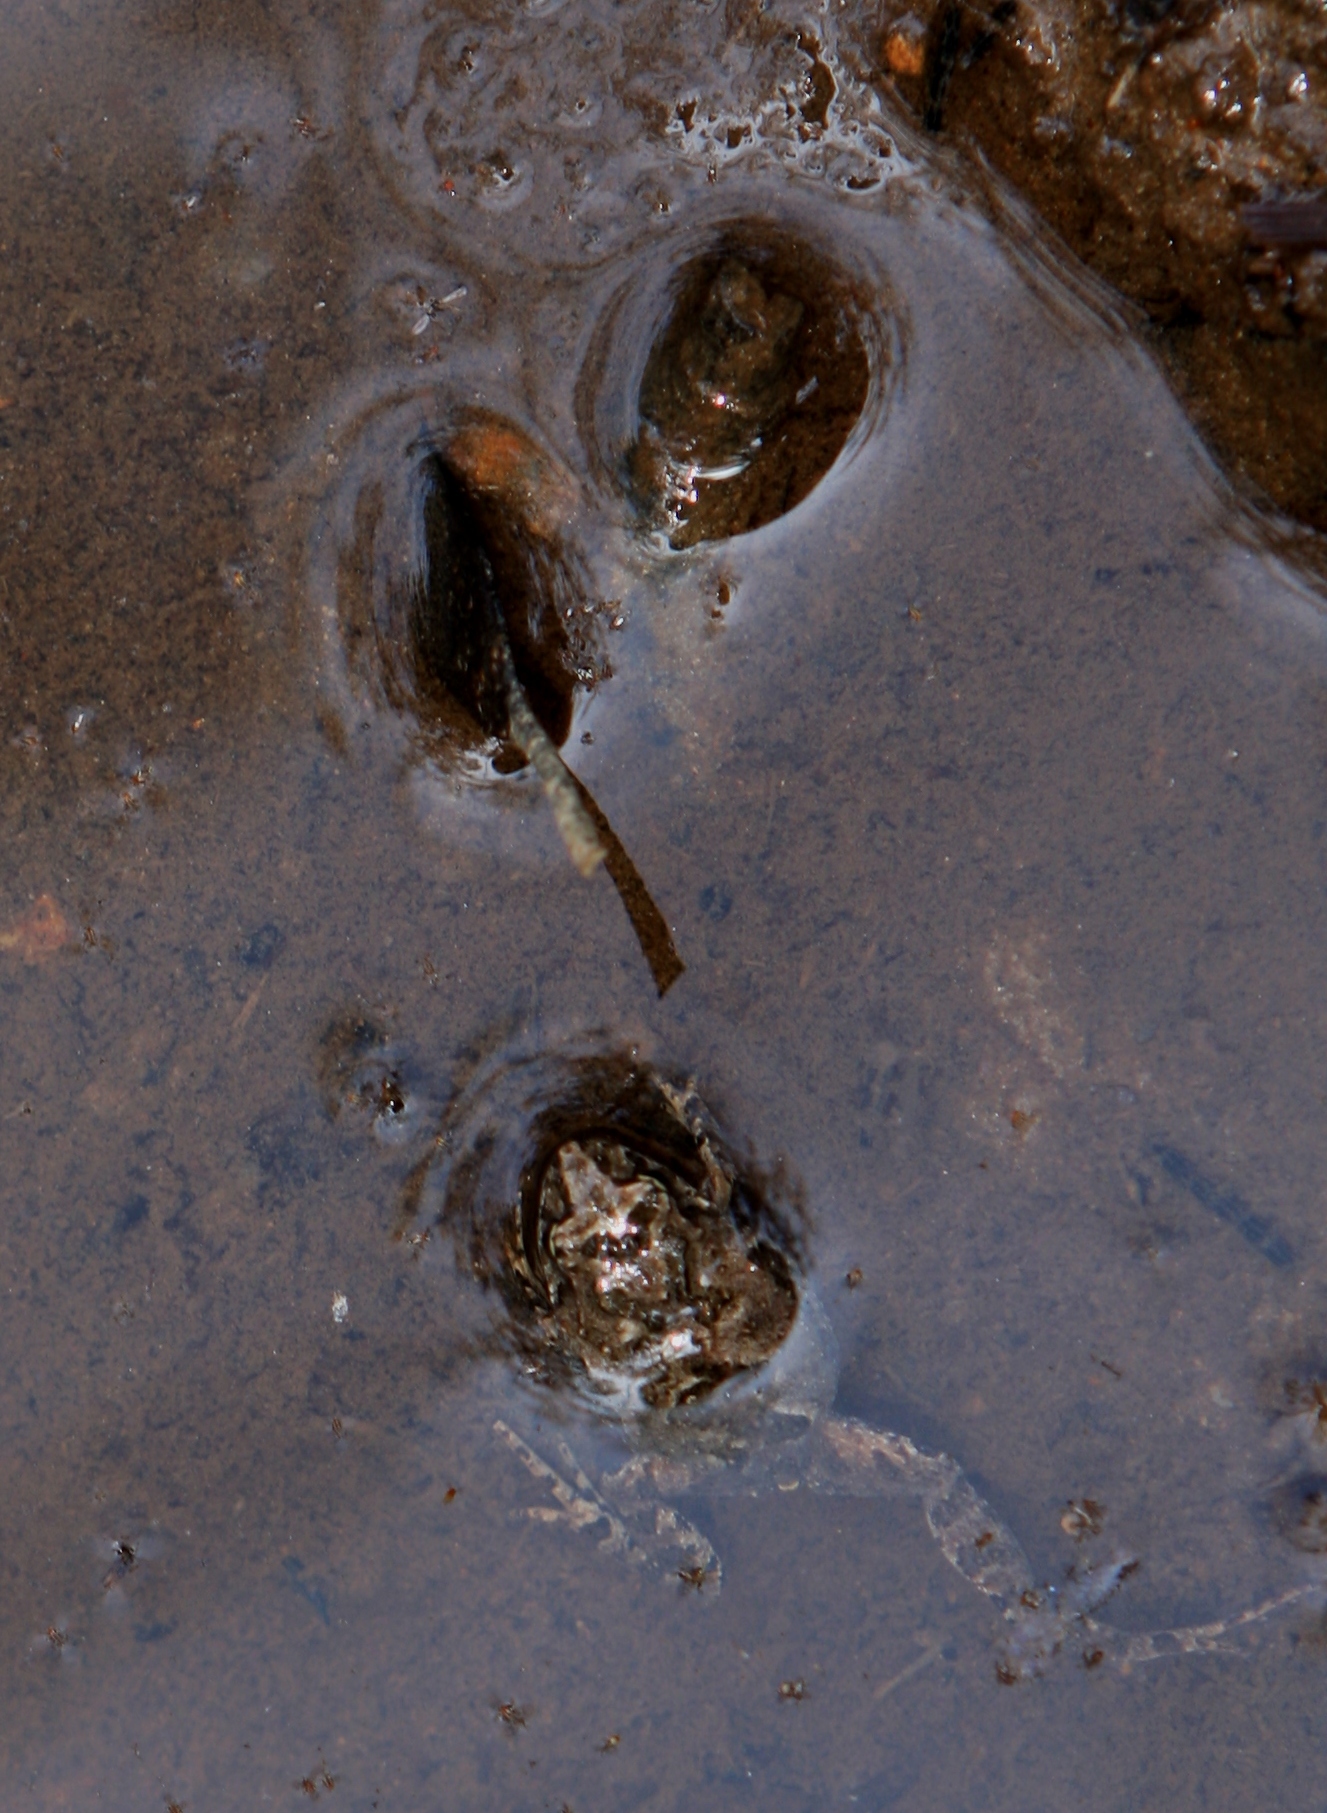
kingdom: Animalia
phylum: Chordata
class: Amphibia
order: Anura
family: Myobatrachidae
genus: Crinia
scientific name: Crinia signifera
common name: Brown froglet
